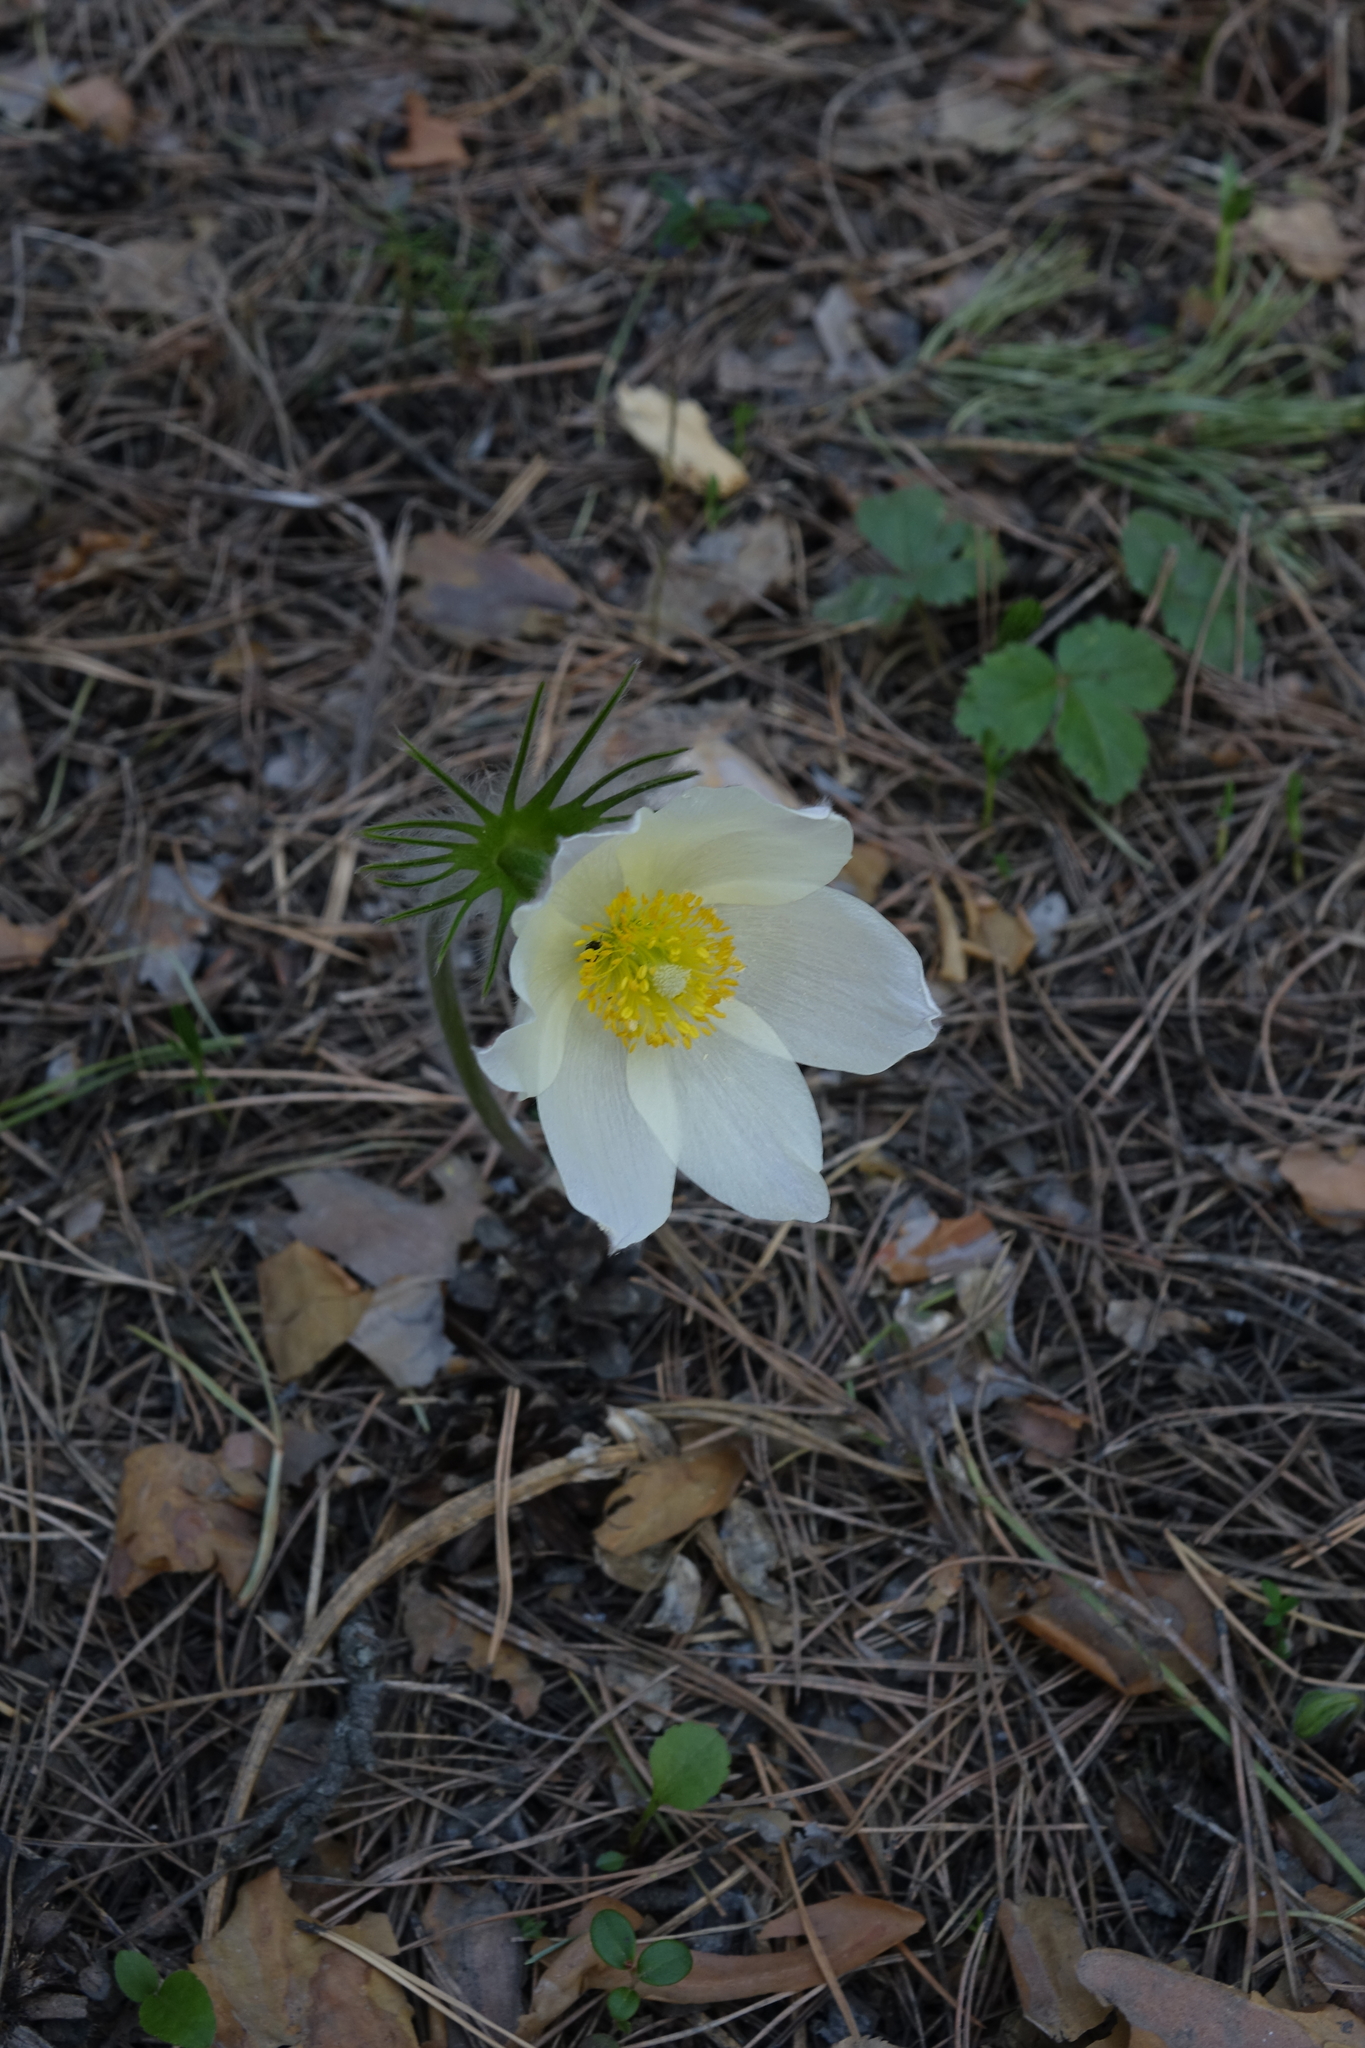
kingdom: Plantae
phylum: Tracheophyta
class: Magnoliopsida
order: Ranunculales
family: Ranunculaceae
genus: Pulsatilla
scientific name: Pulsatilla patens
